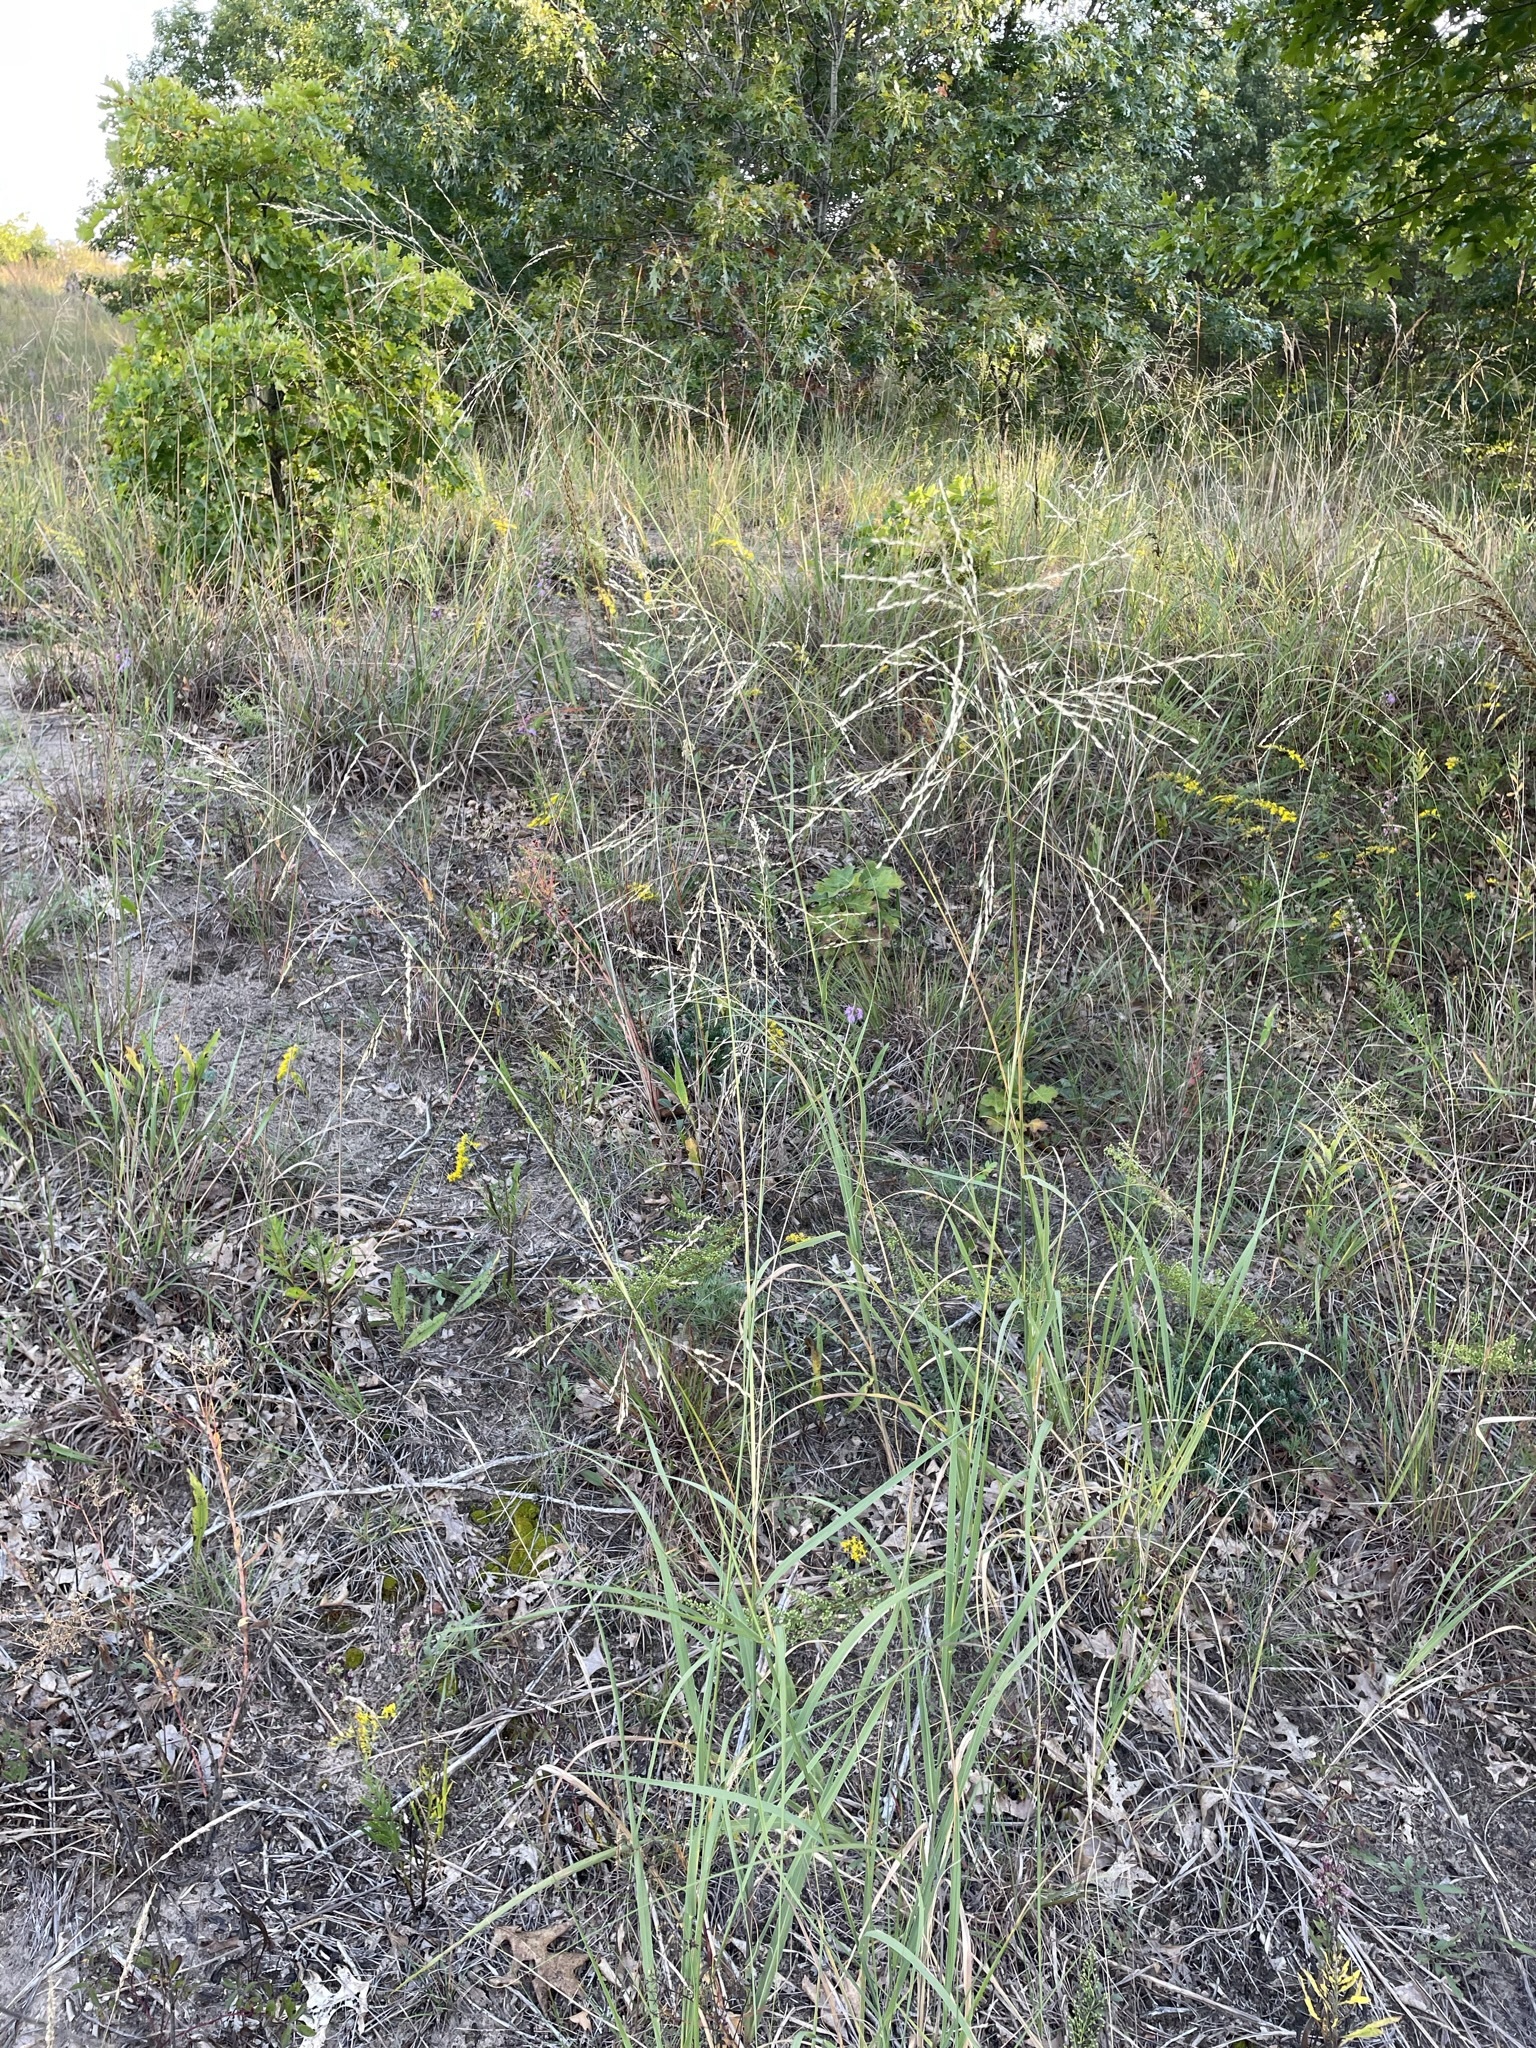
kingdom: Plantae
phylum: Tracheophyta
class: Liliopsida
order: Poales
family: Poaceae
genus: Sporobolus
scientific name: Sporobolus rigidus
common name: Prairie sandreed
